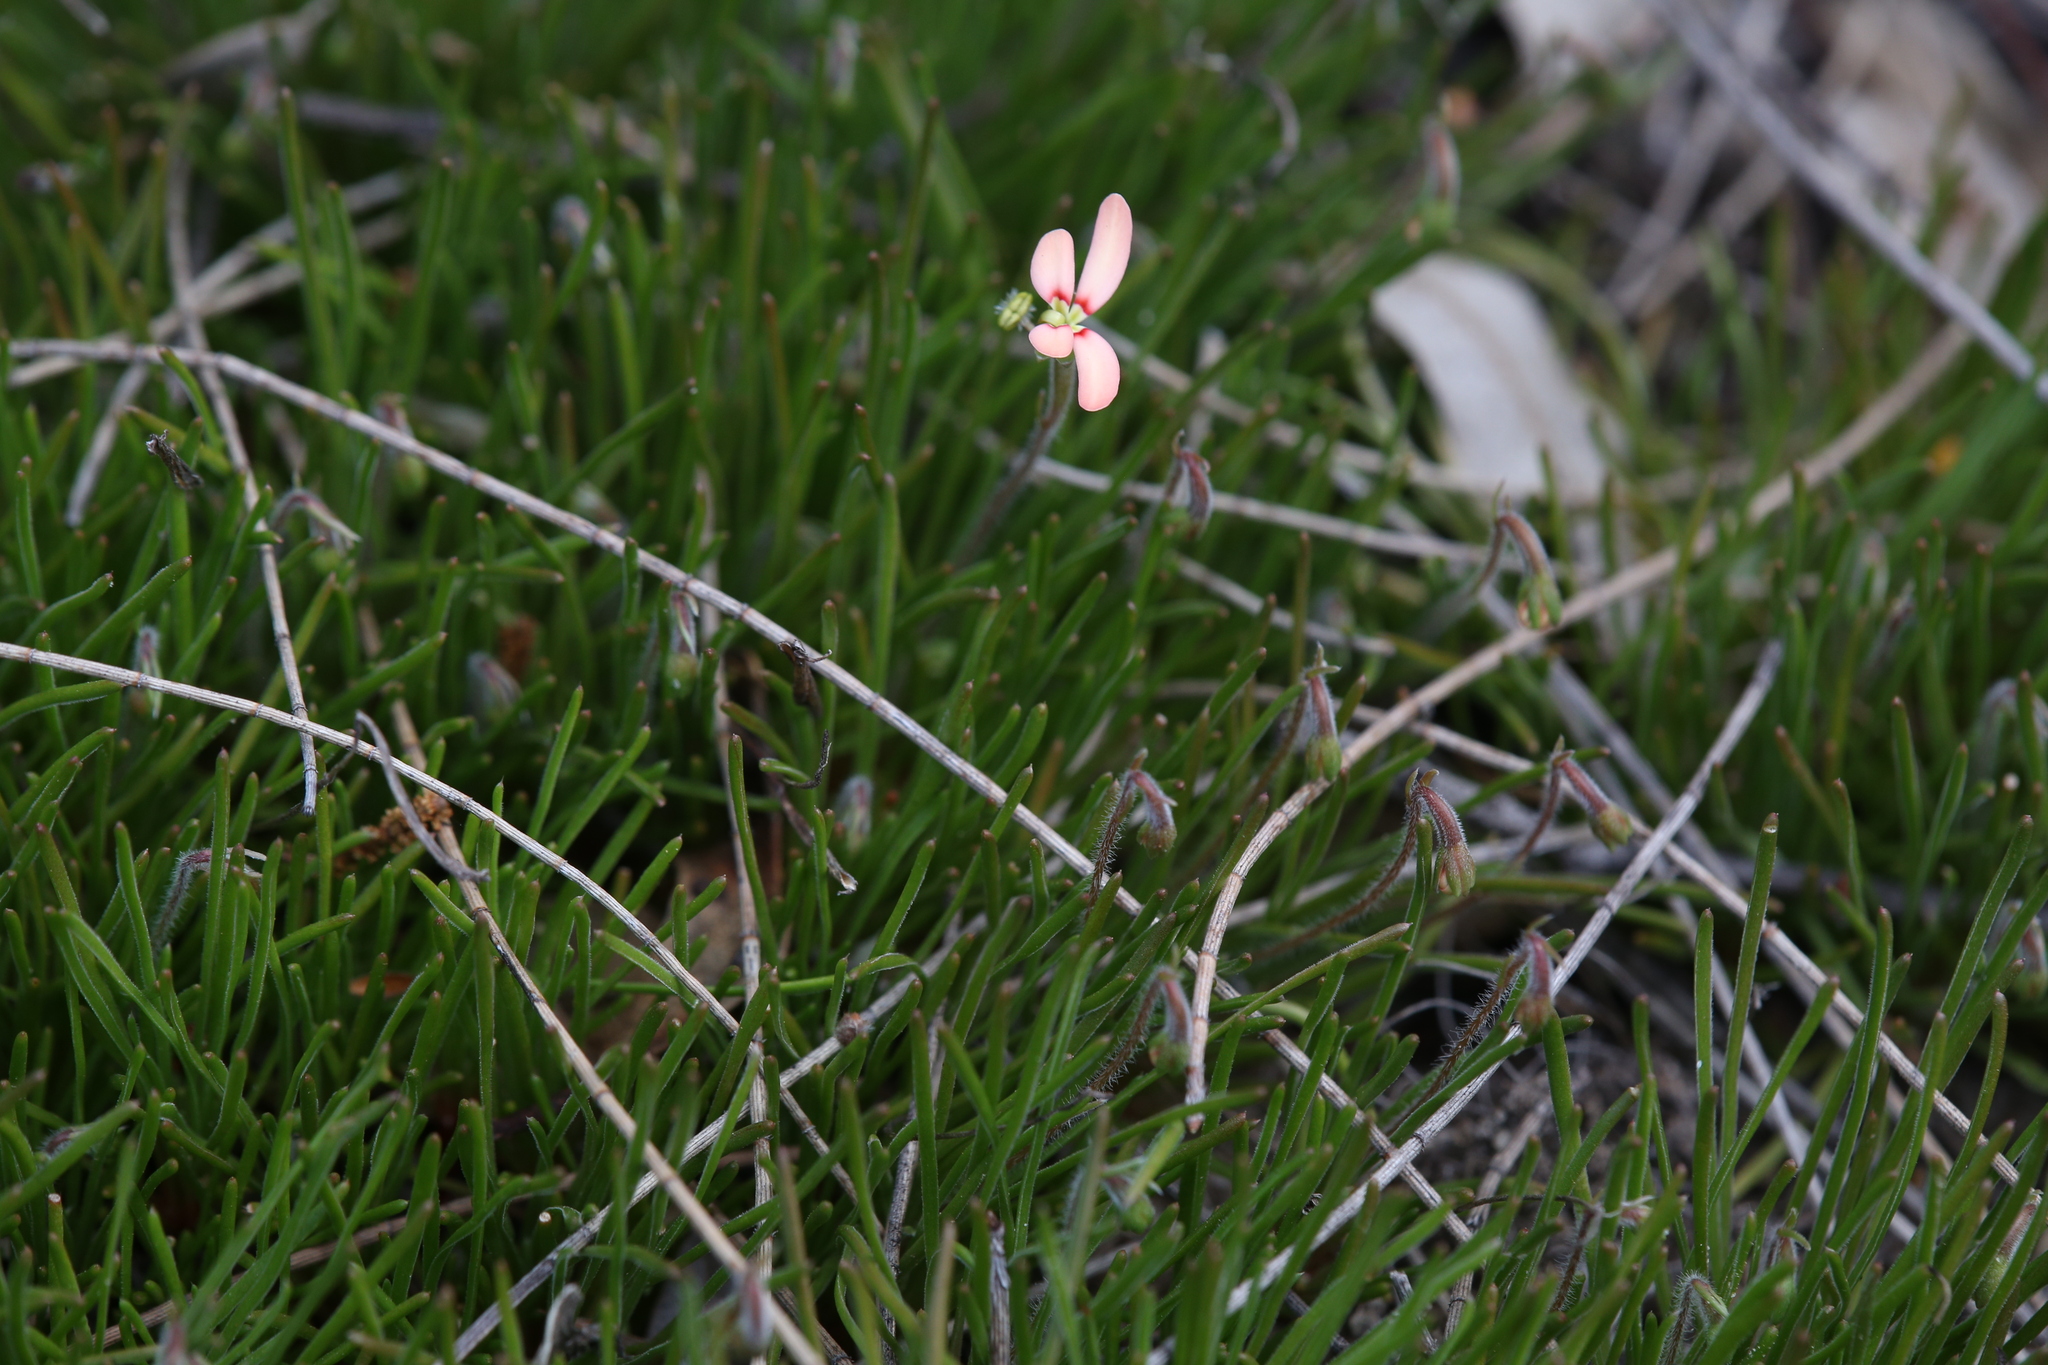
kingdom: Plantae
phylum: Tracheophyta
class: Magnoliopsida
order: Asterales
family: Stylidiaceae
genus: Stylidium
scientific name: Stylidium uniflorum
